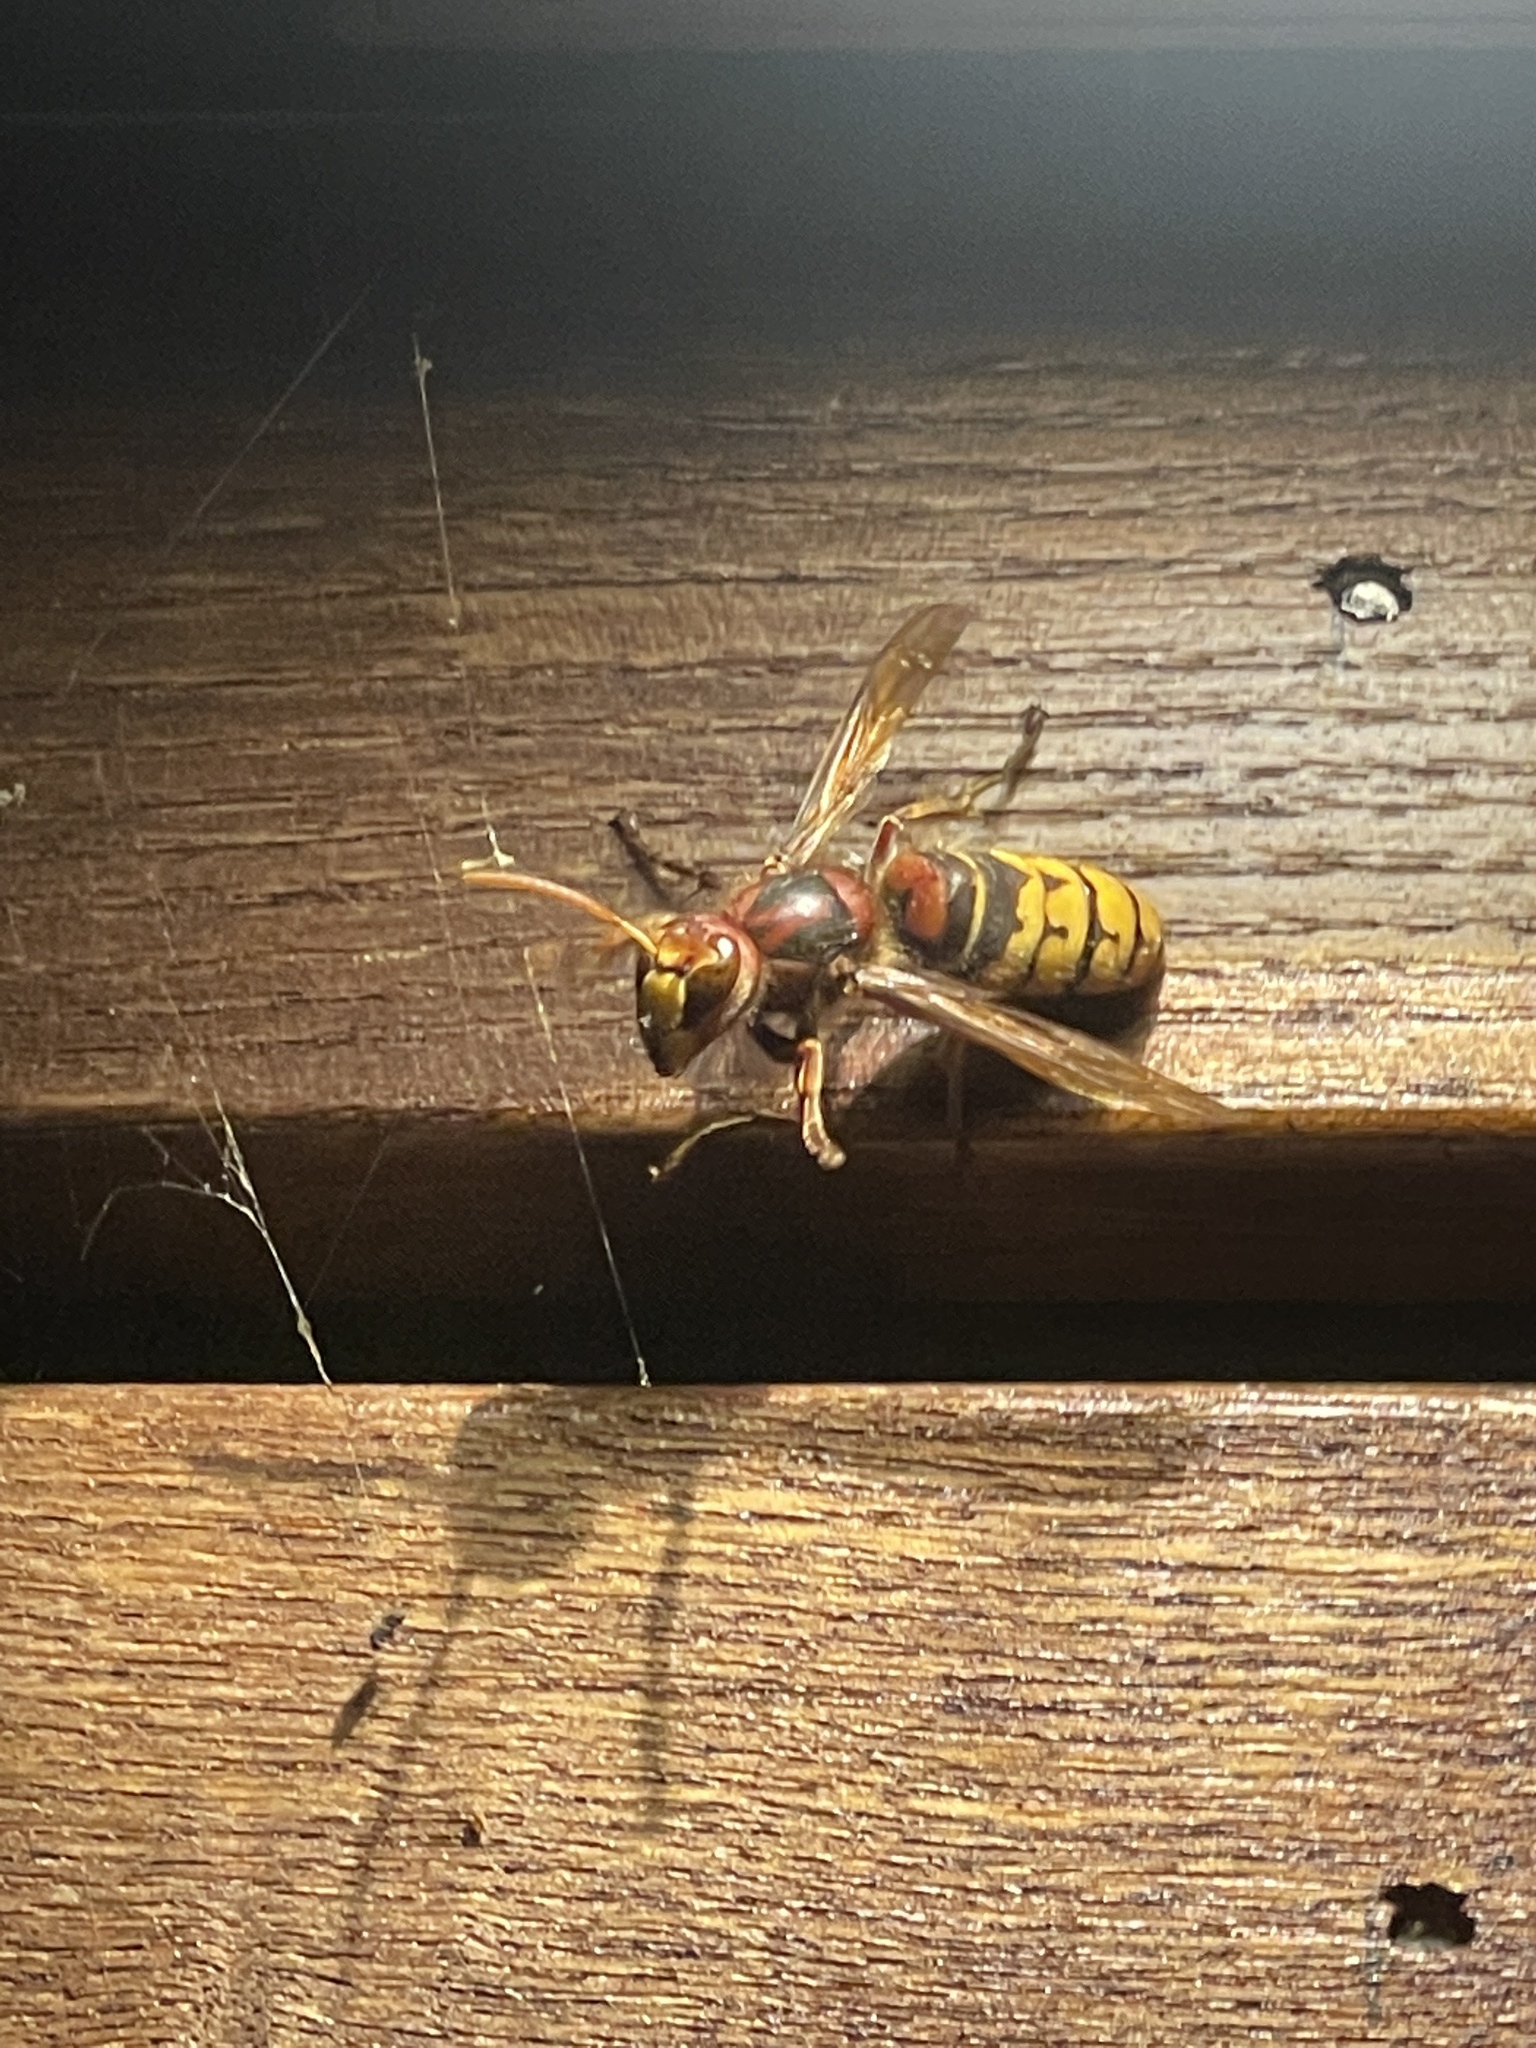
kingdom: Animalia
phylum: Arthropoda
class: Insecta
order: Hymenoptera
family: Vespidae
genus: Vespa
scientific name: Vespa crabro
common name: Hornet
